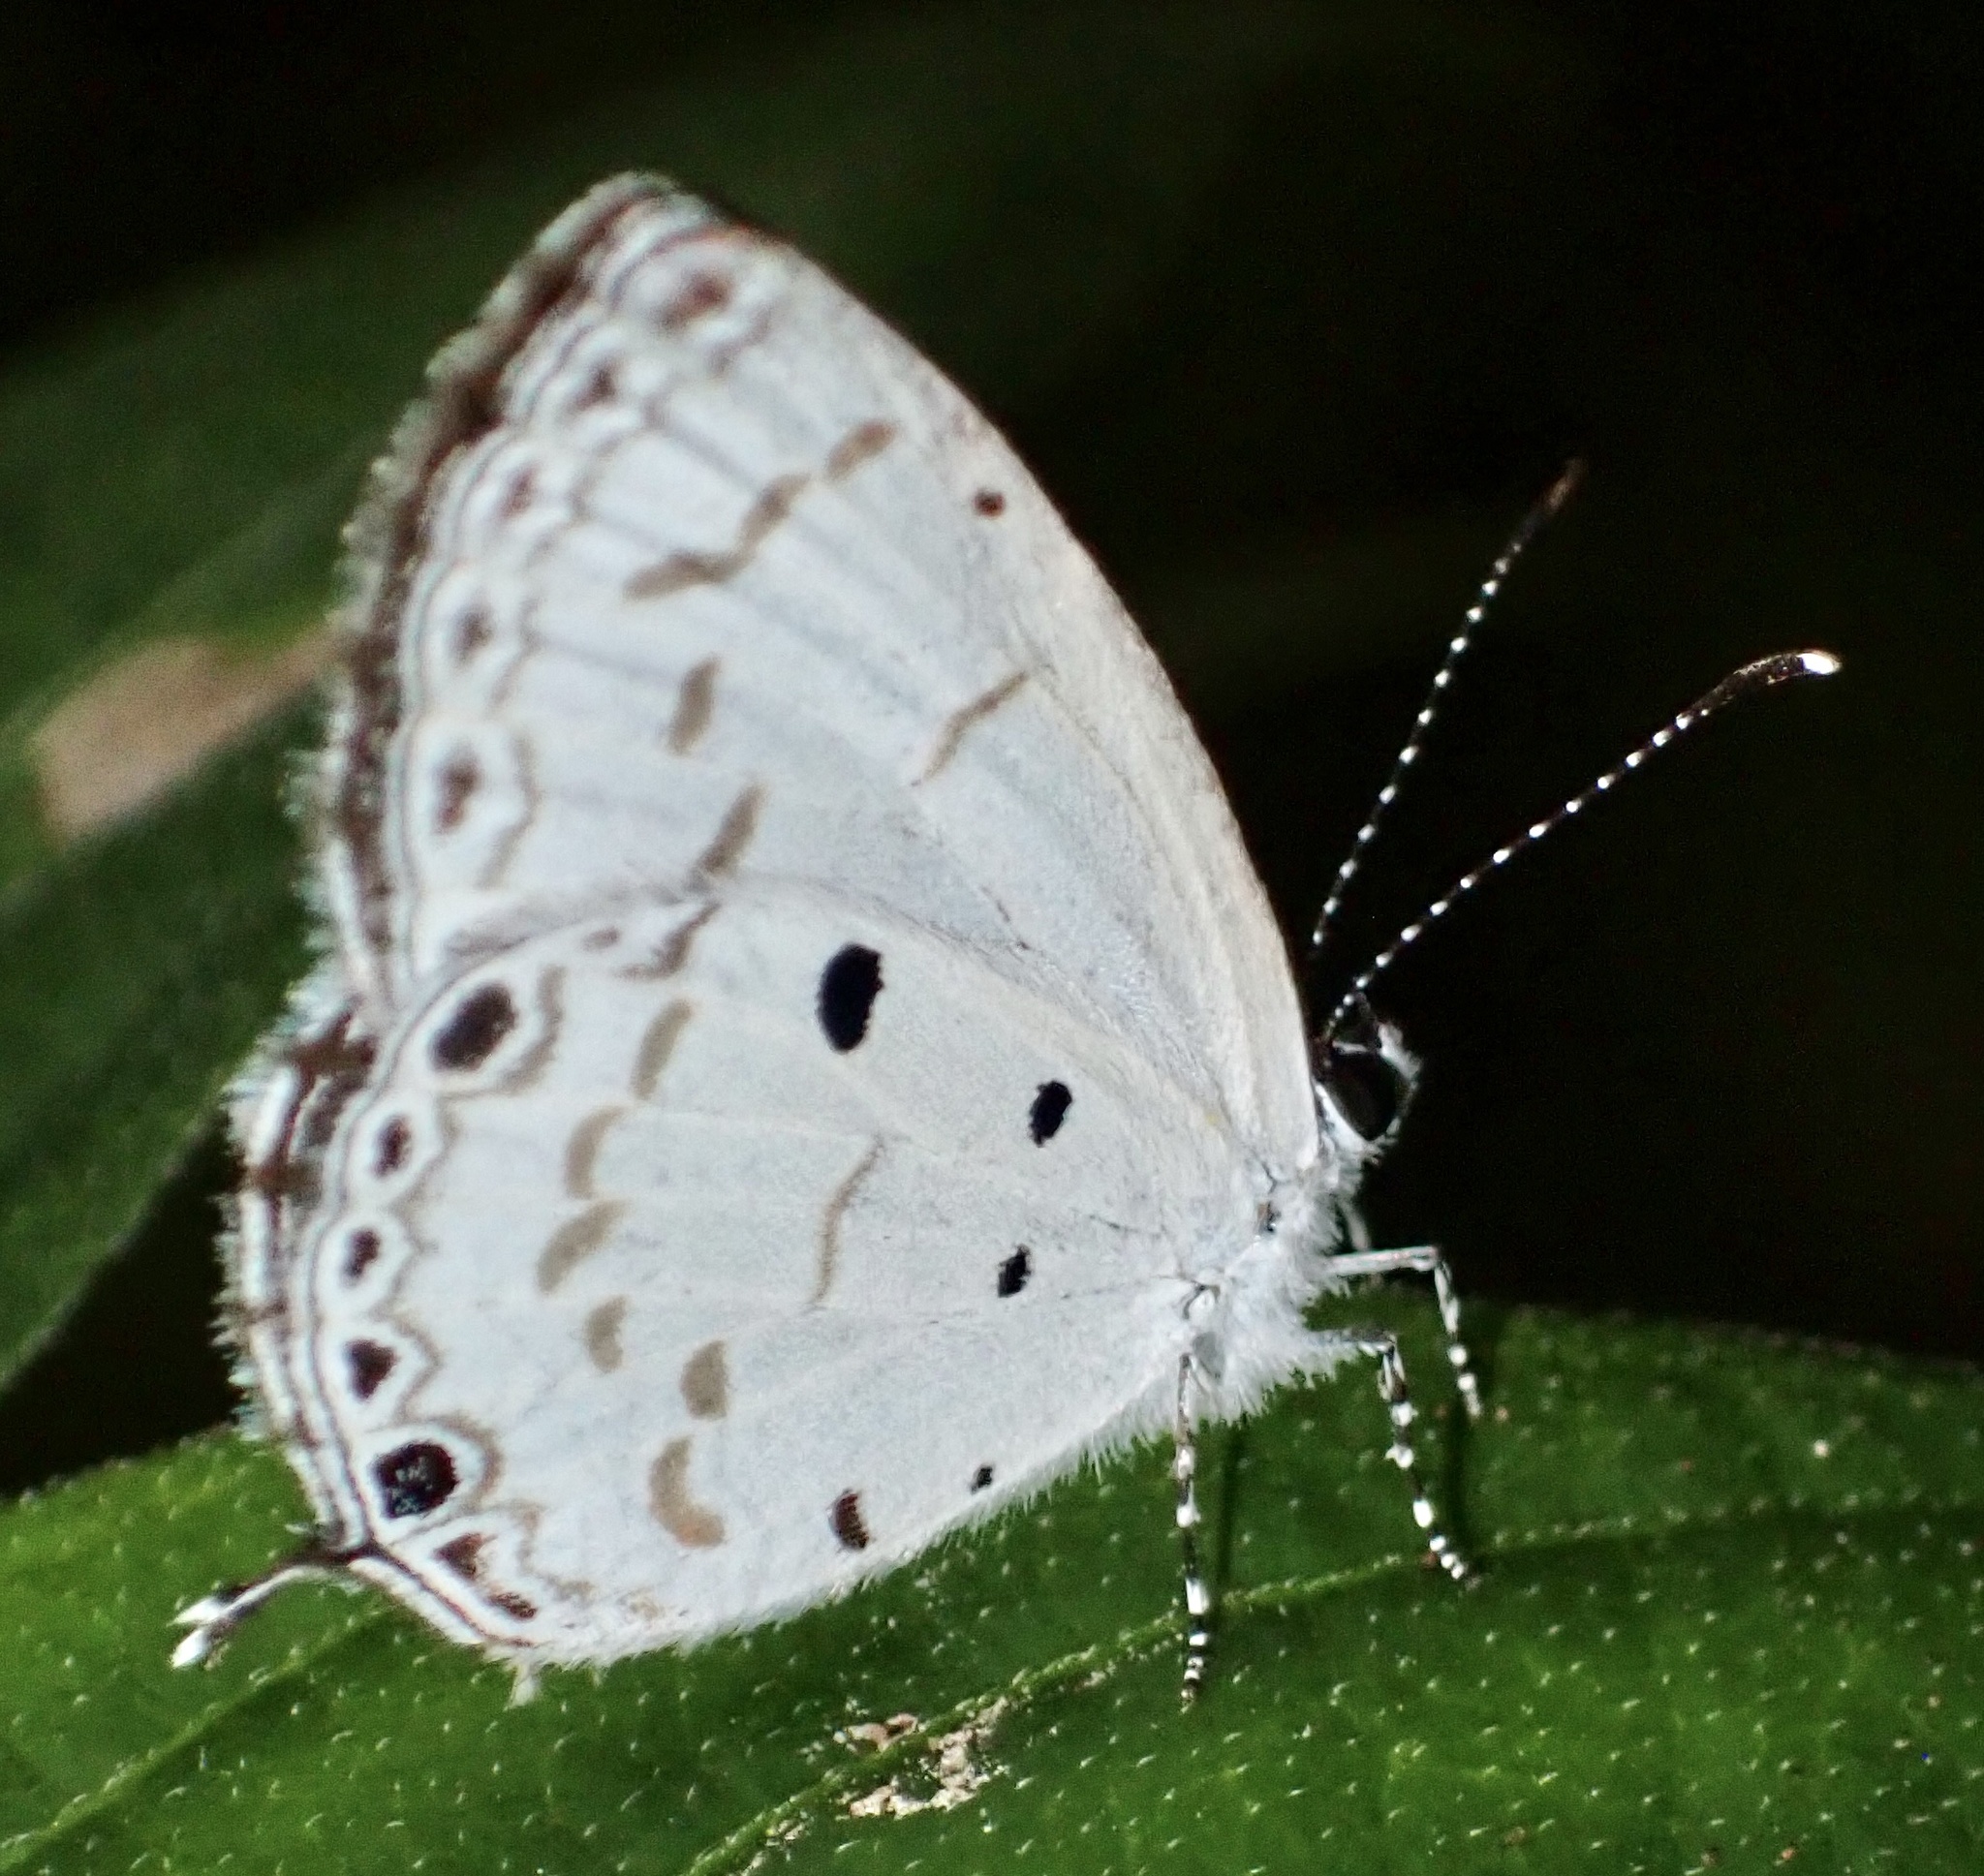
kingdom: Animalia
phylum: Arthropoda
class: Insecta
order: Lepidoptera
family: Lycaenidae
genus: Thermoniphas
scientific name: Thermoniphas micylus
